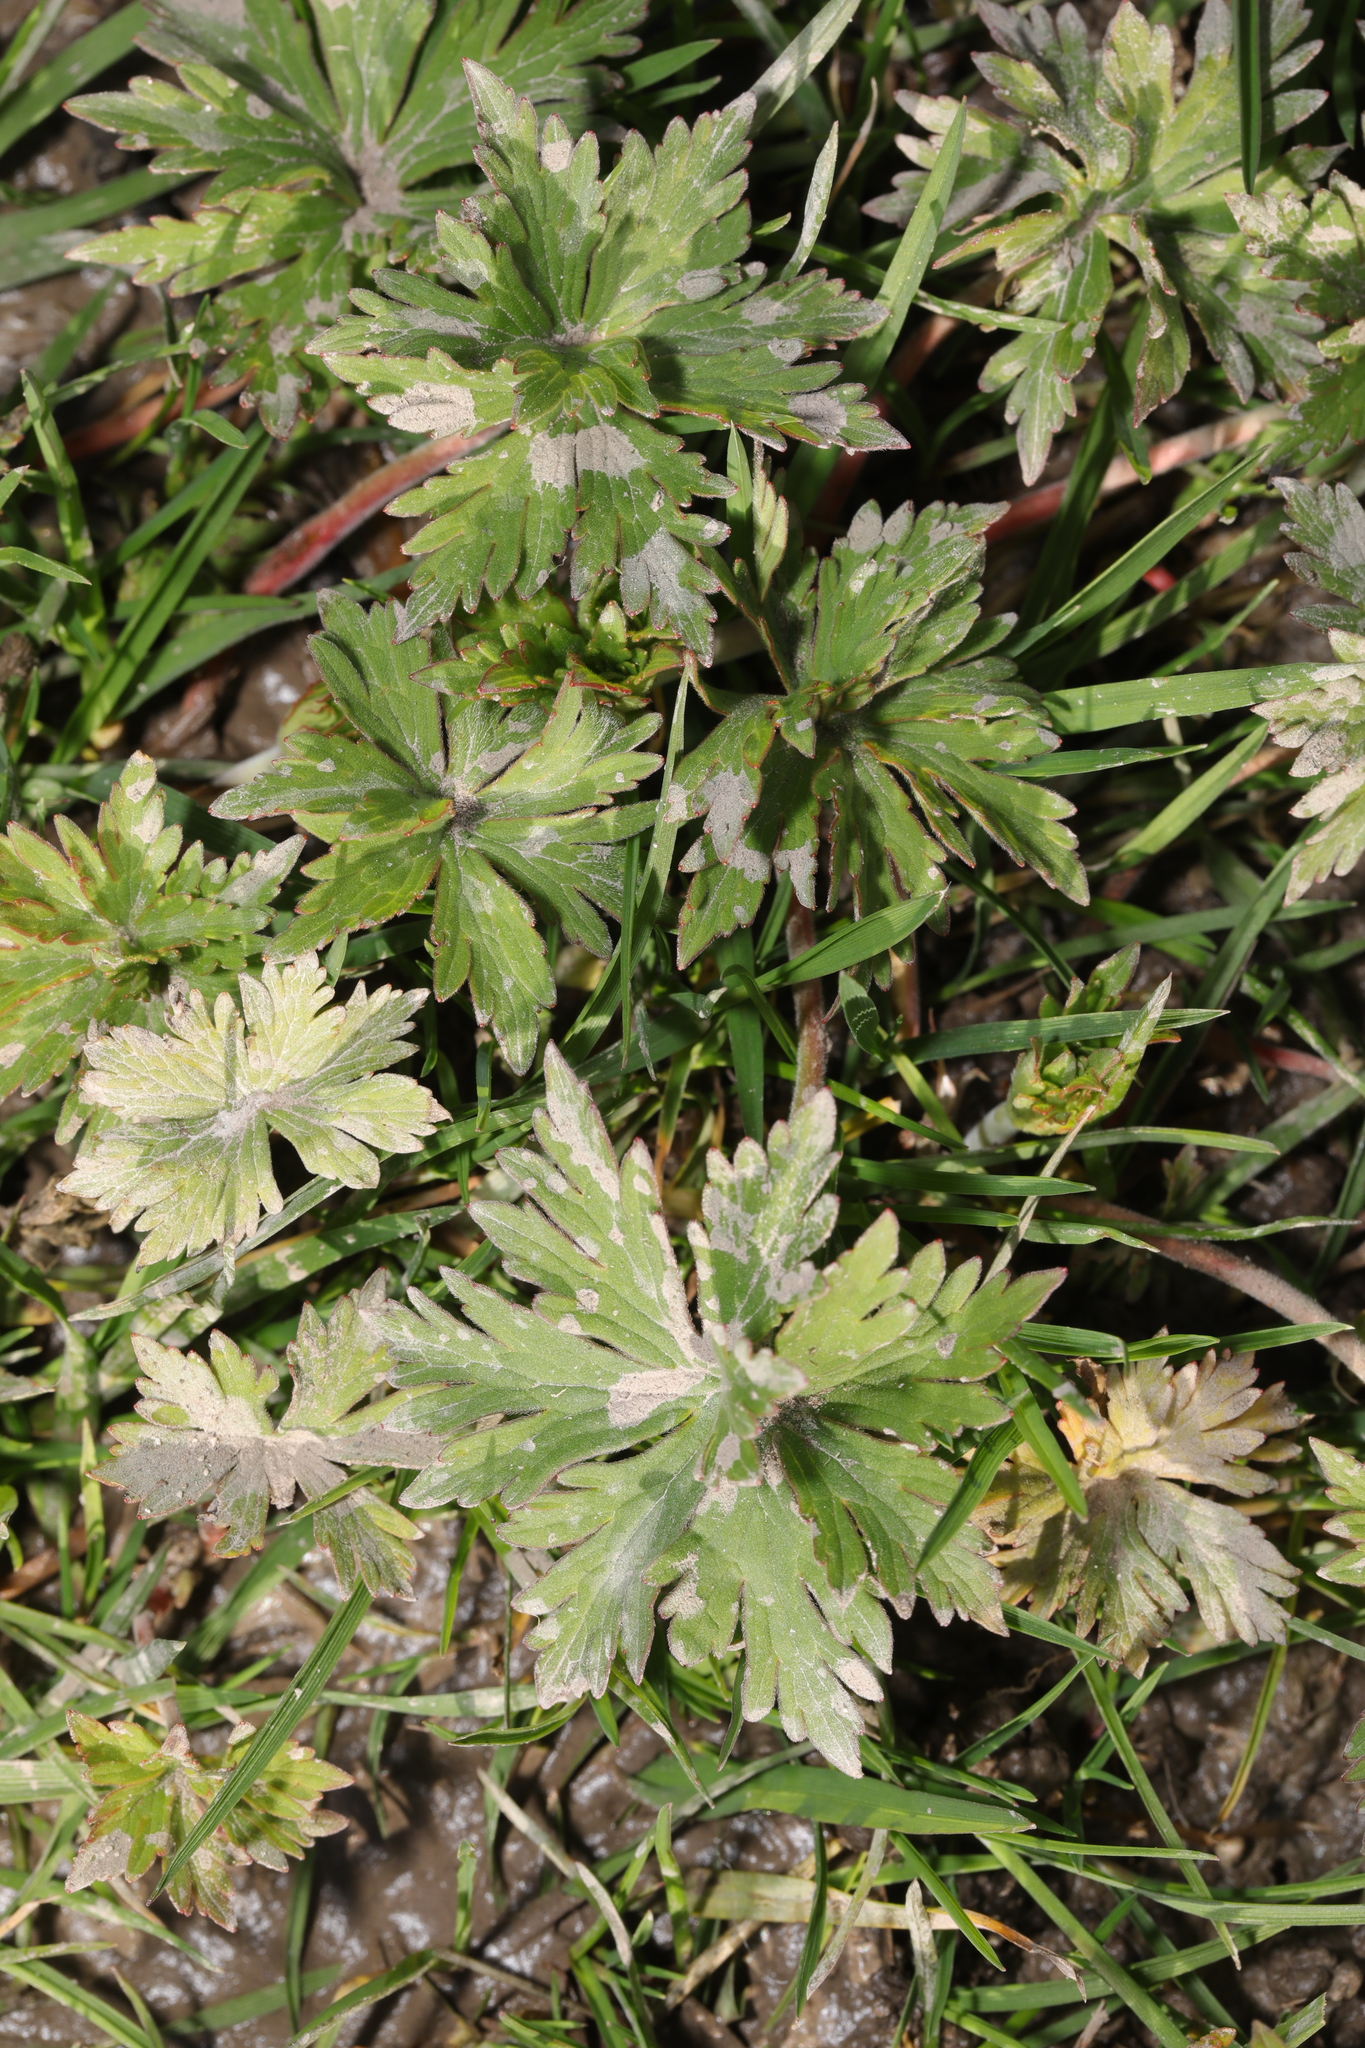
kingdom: Plantae
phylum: Tracheophyta
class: Magnoliopsida
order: Ranunculales
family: Ranunculaceae
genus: Ranunculus
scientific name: Ranunculus acris
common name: Meadow buttercup
